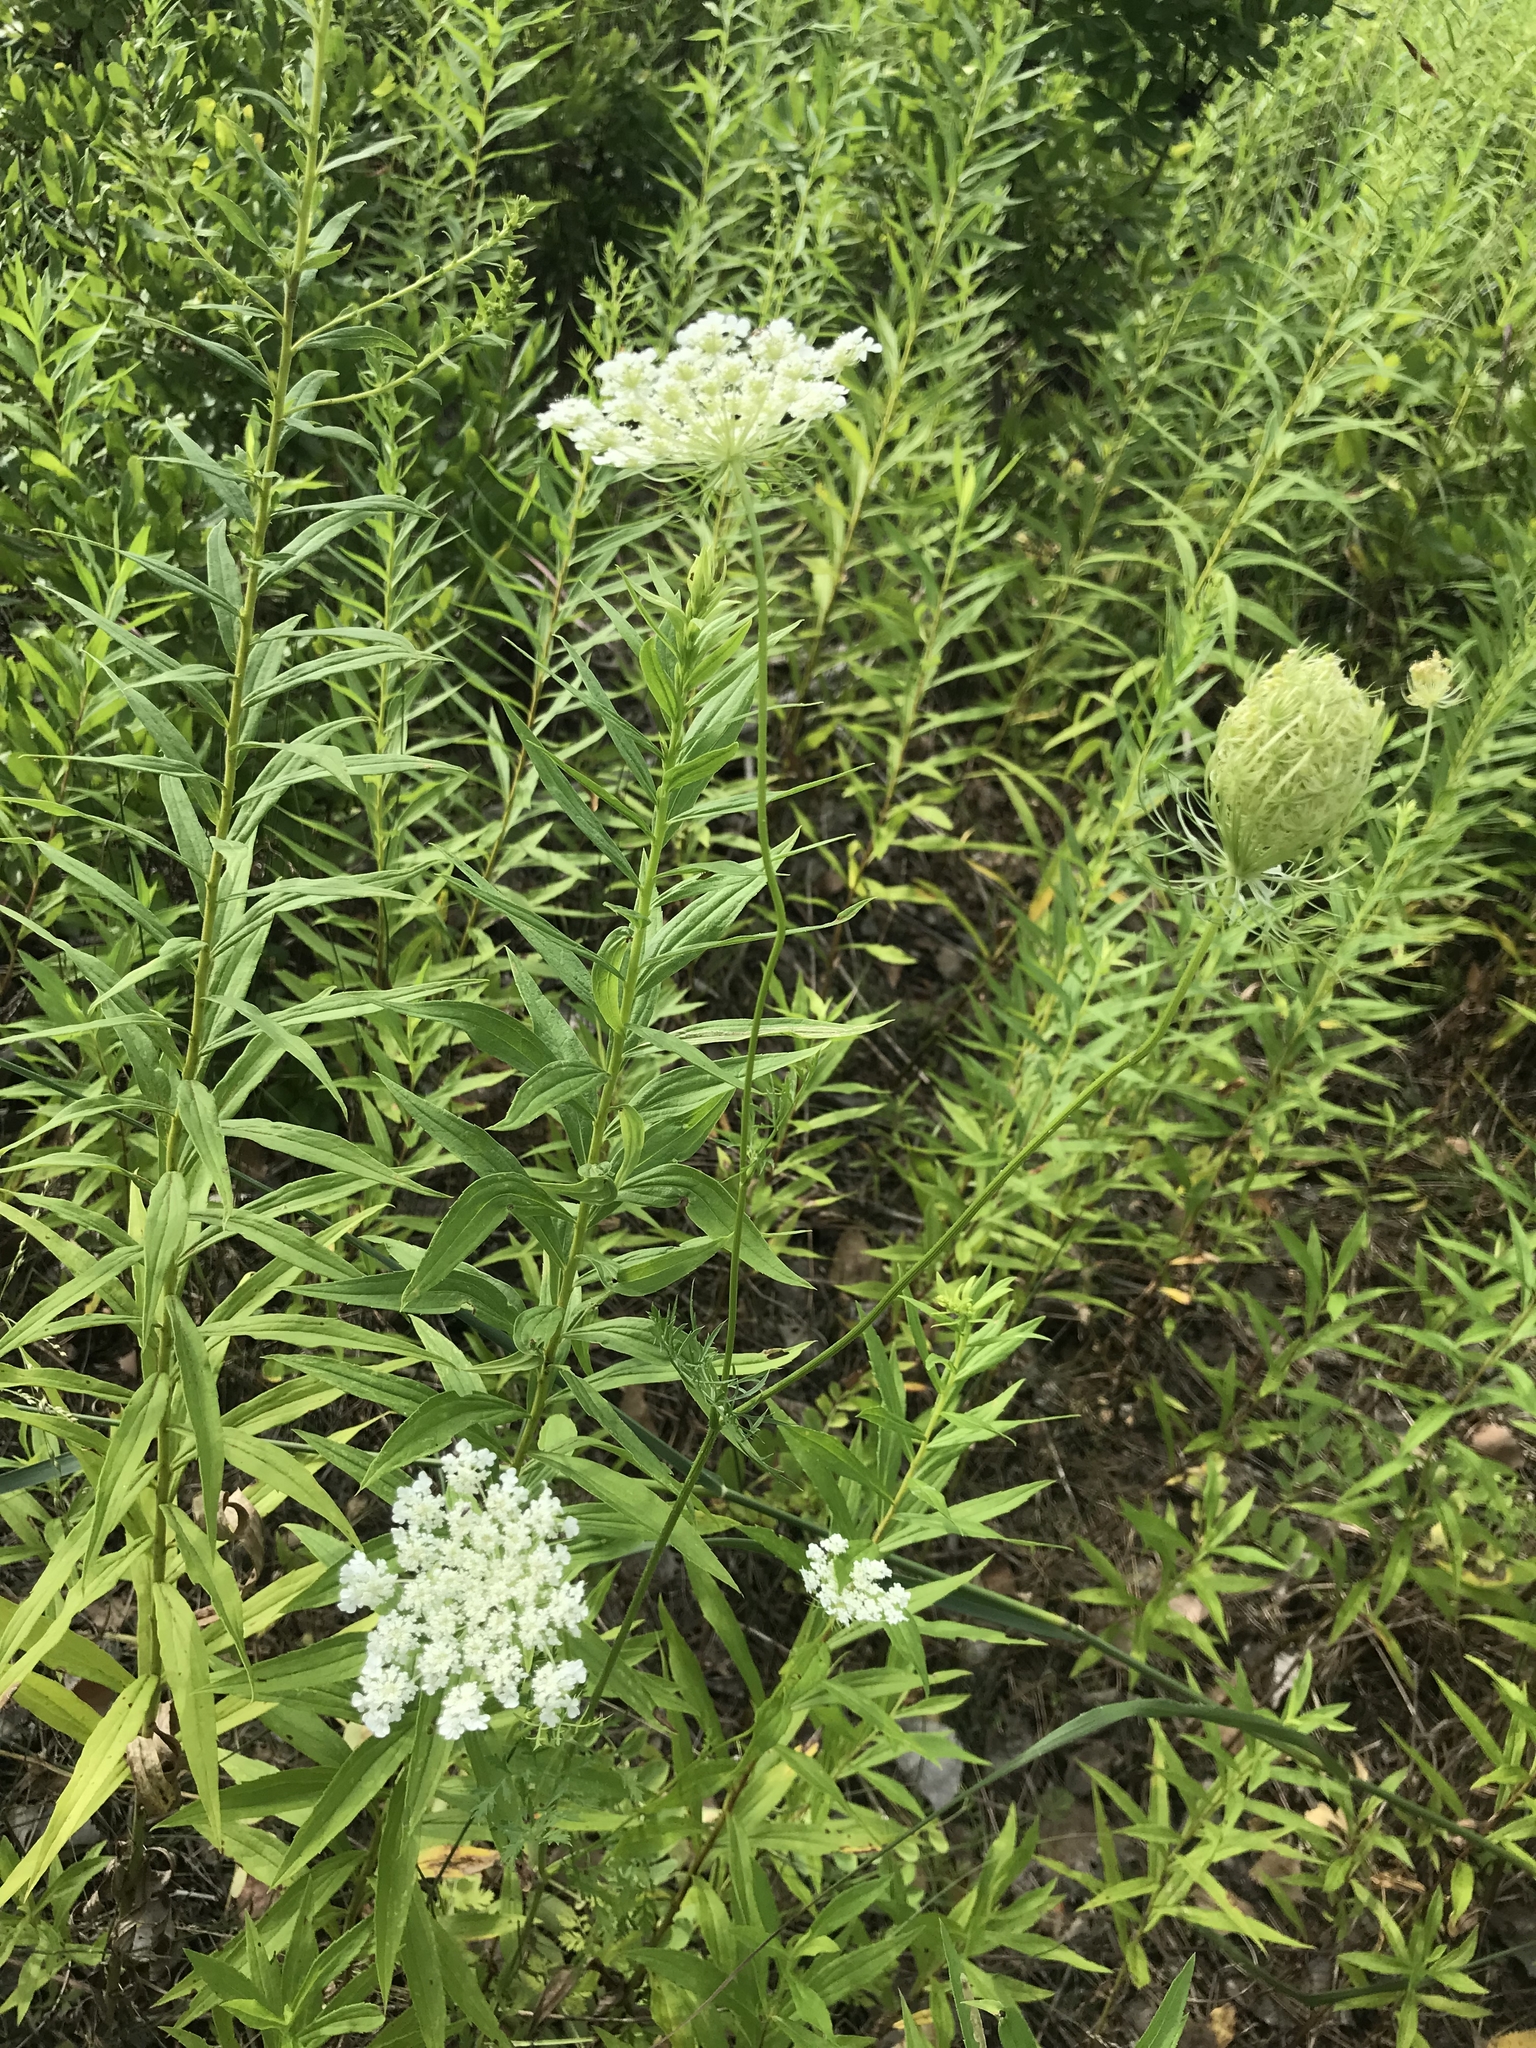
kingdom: Plantae
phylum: Tracheophyta
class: Magnoliopsida
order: Apiales
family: Apiaceae
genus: Daucus
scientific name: Daucus carota
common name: Wild carrot
